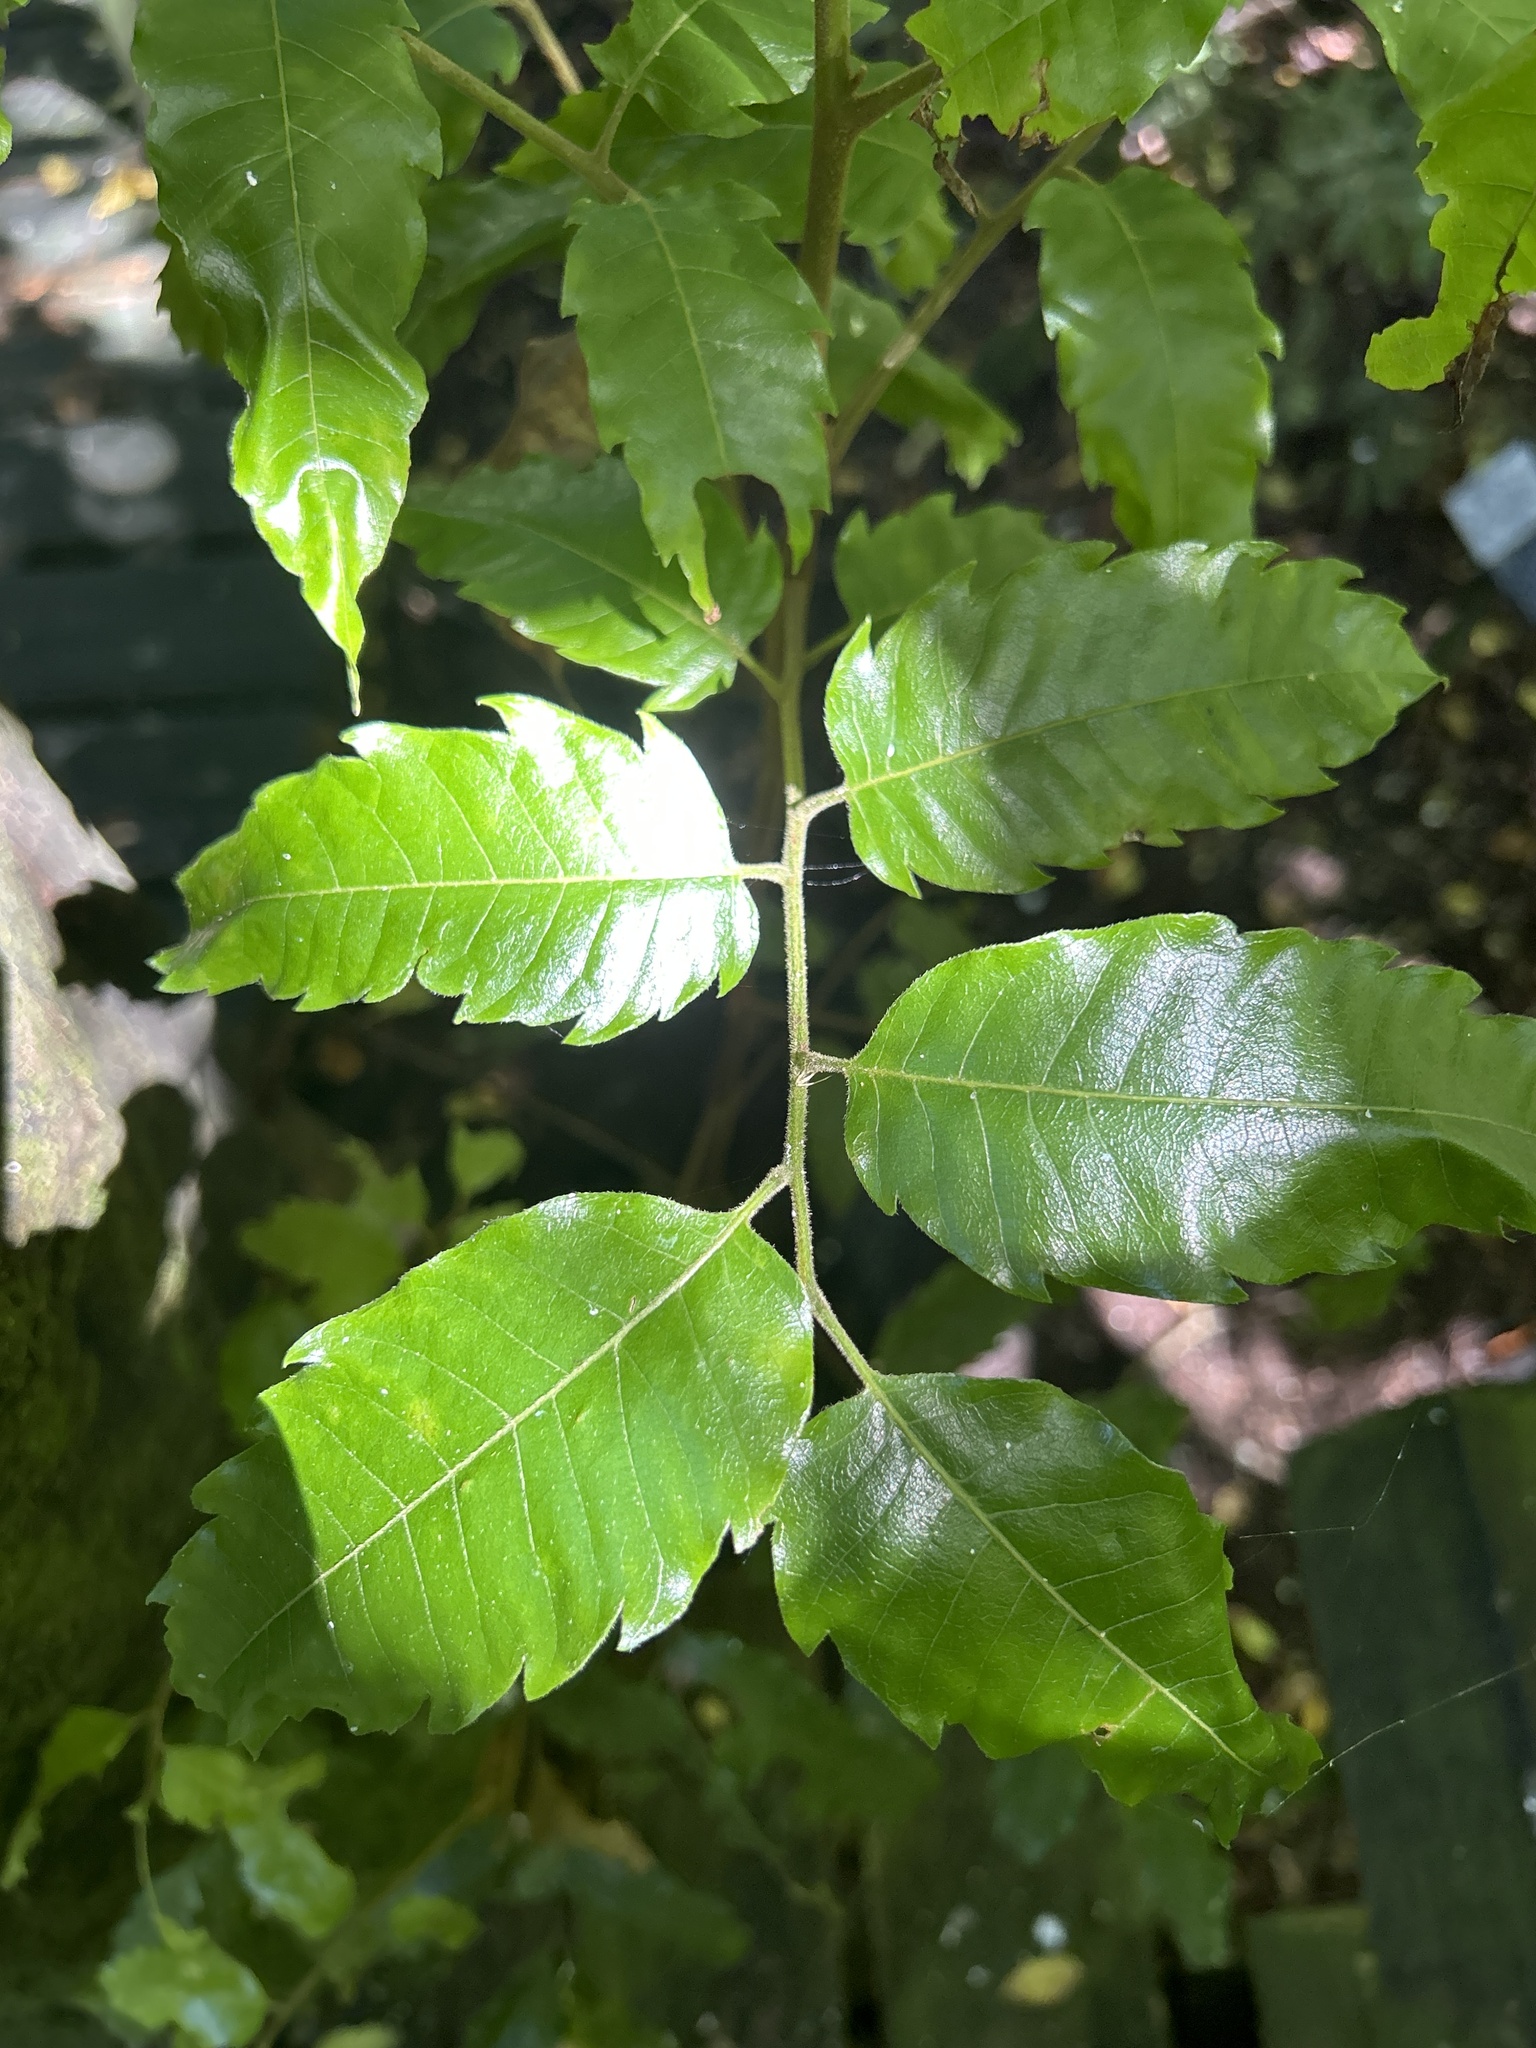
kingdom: Plantae
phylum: Tracheophyta
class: Magnoliopsida
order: Sapindales
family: Sapindaceae
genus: Alectryon
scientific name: Alectryon excelsus
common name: Three kings titoki
